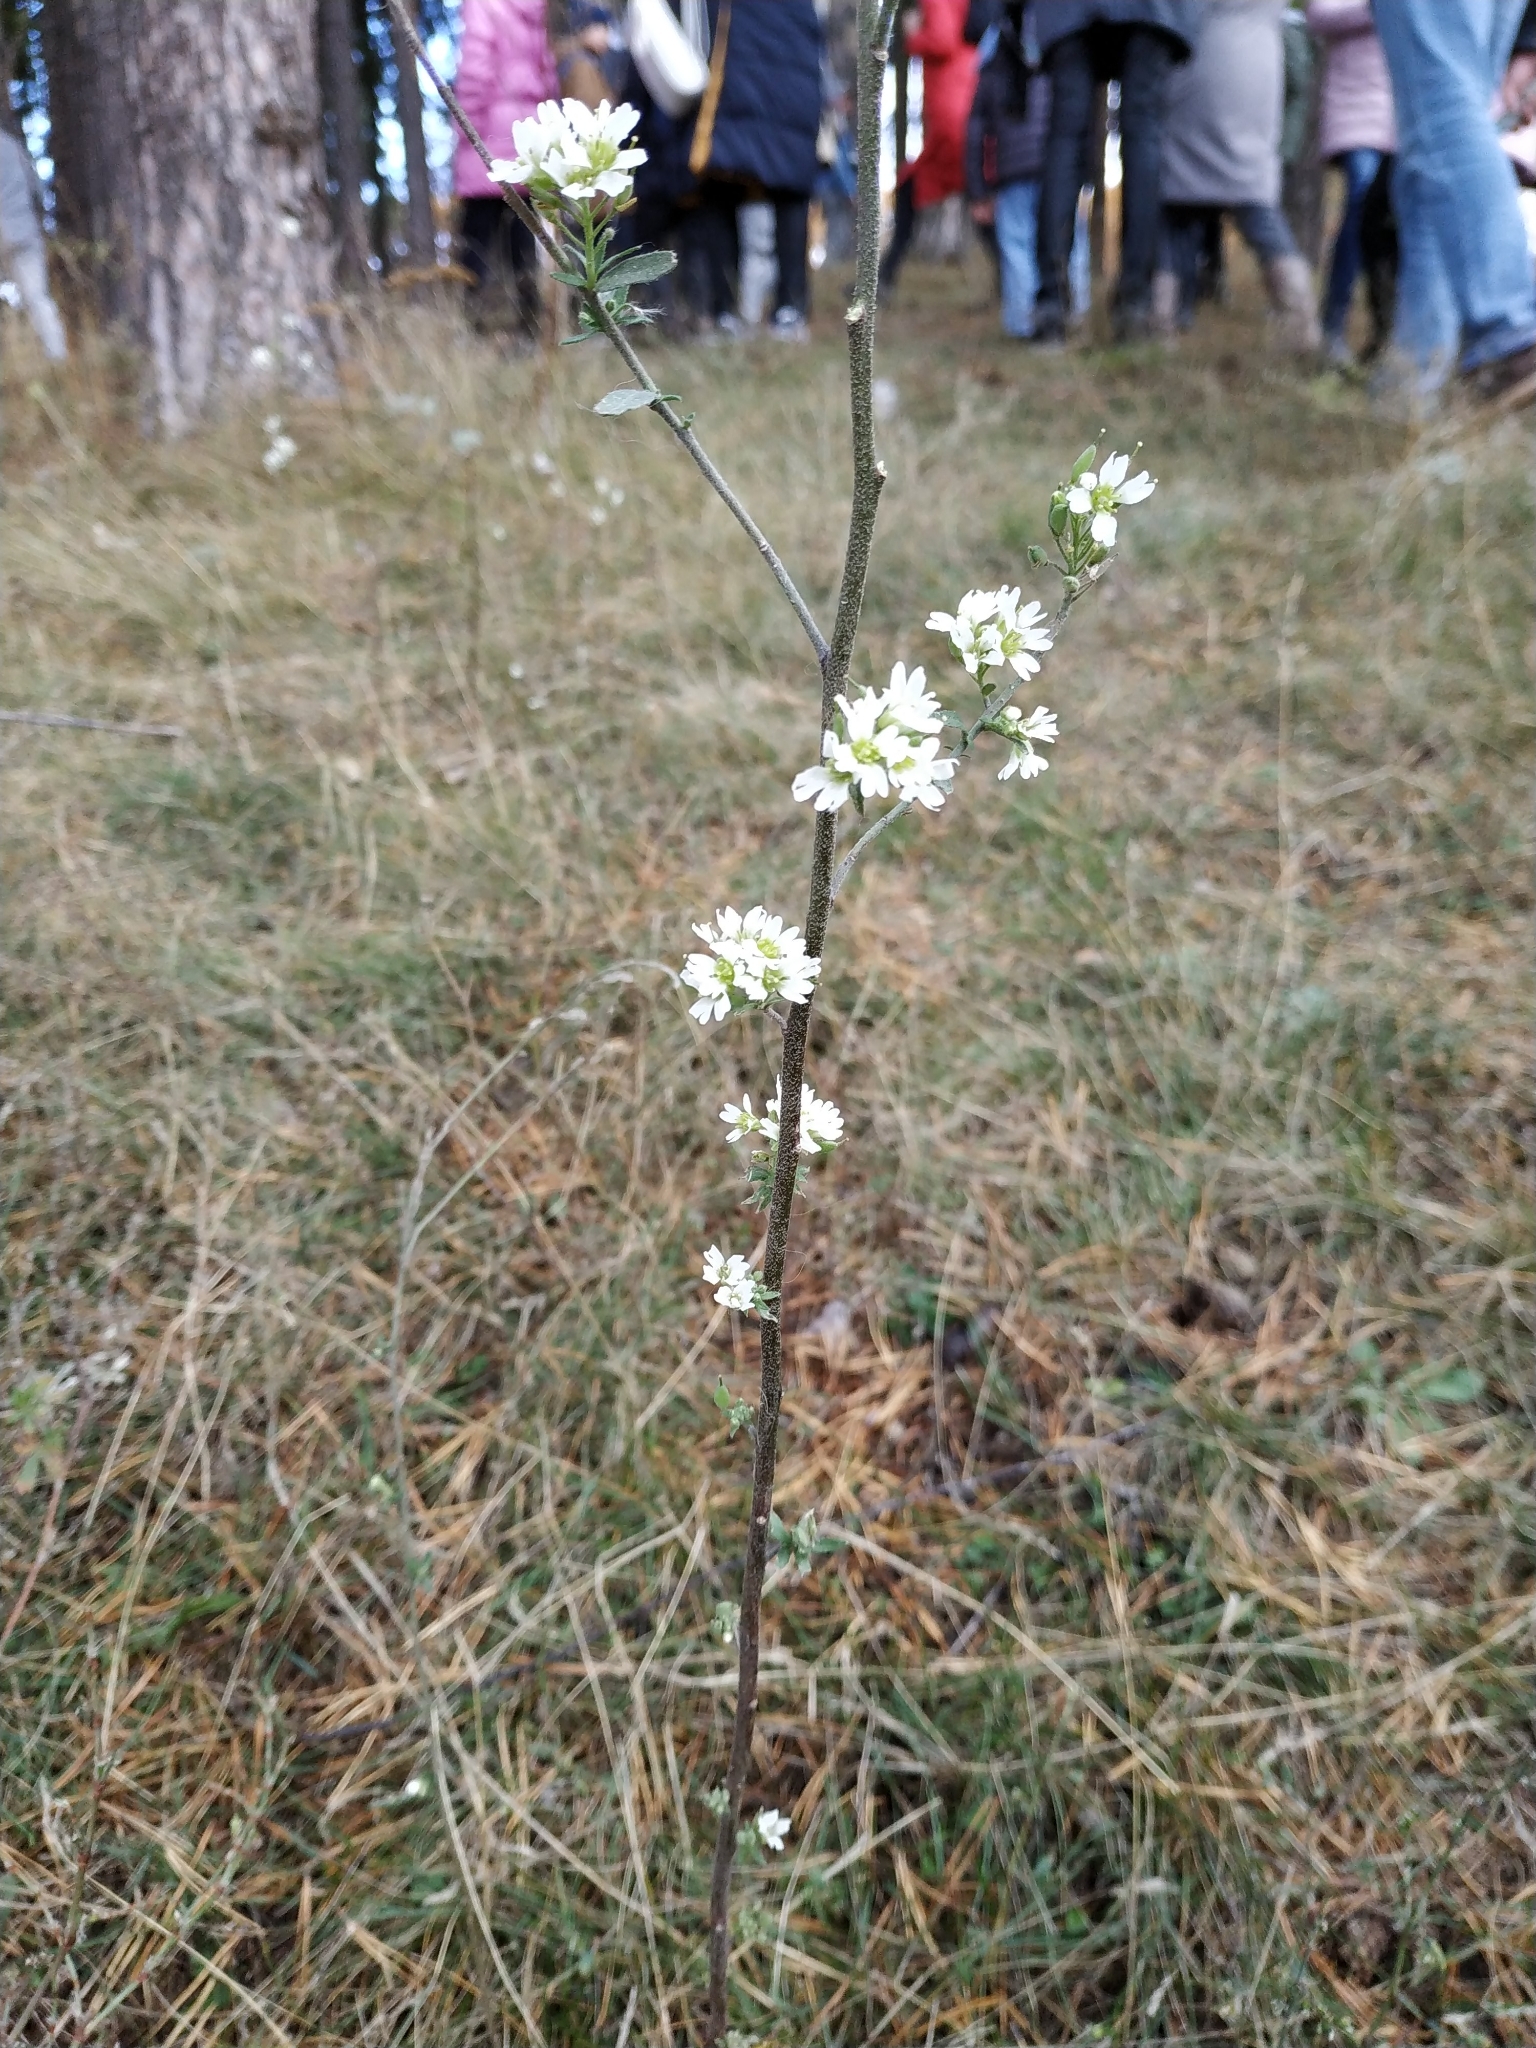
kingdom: Plantae
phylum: Tracheophyta
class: Magnoliopsida
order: Brassicales
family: Brassicaceae
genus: Berteroa
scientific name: Berteroa incana
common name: Hoary alison
